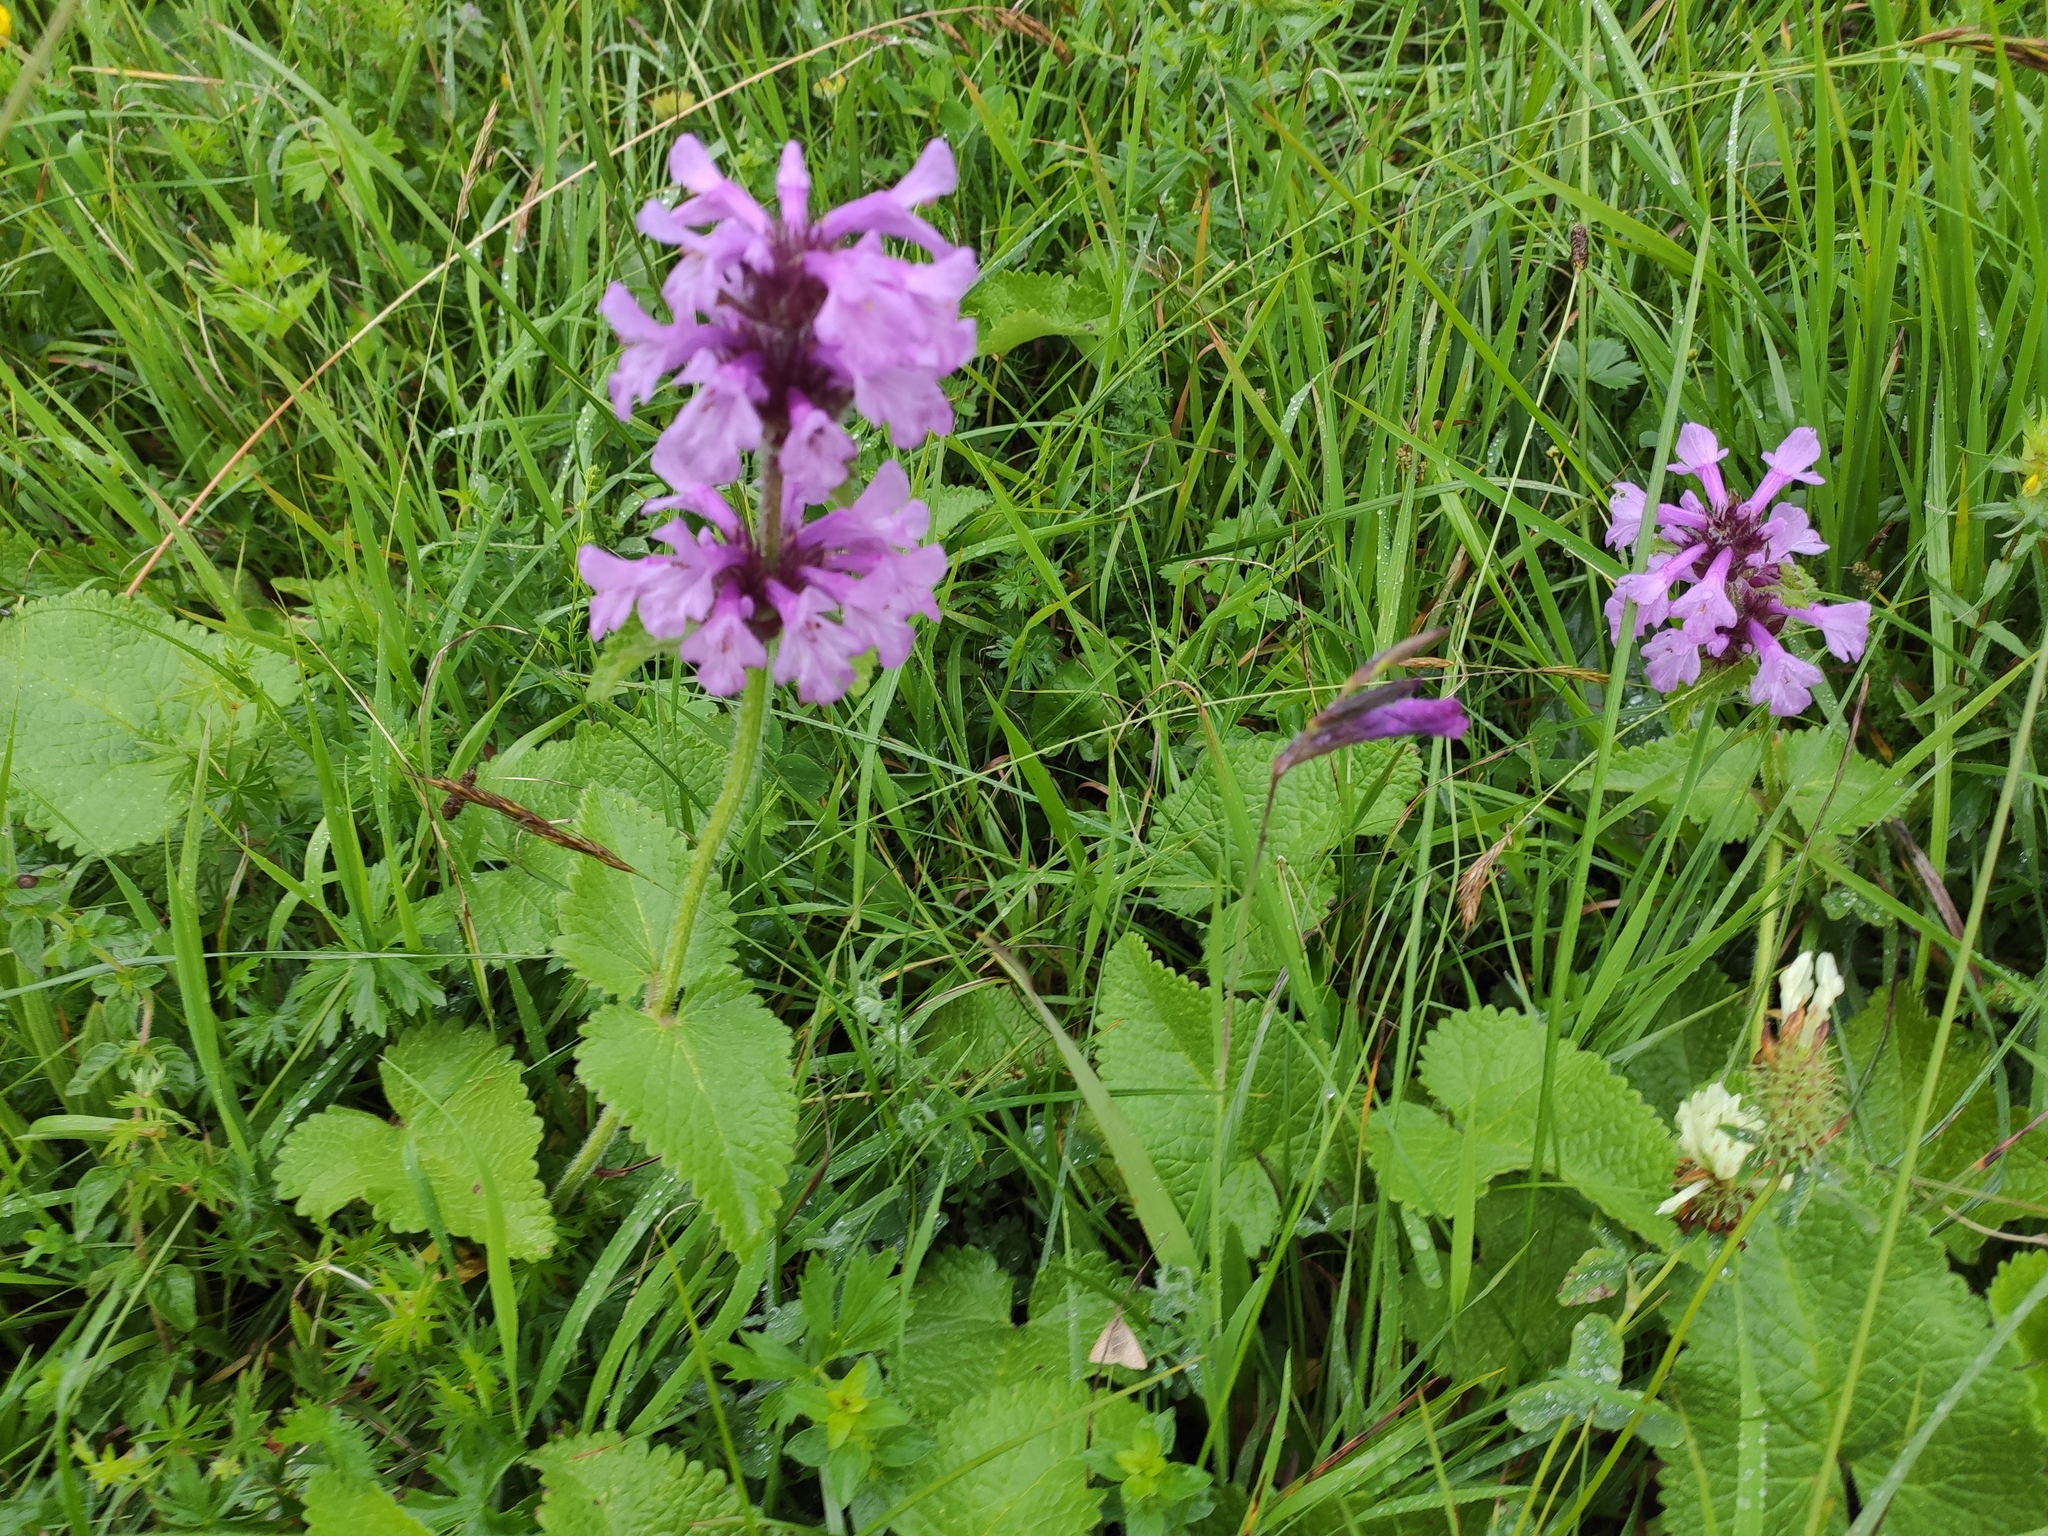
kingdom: Plantae
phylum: Tracheophyta
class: Magnoliopsida
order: Lamiales
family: Lamiaceae
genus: Betonica
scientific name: Betonica macrantha
